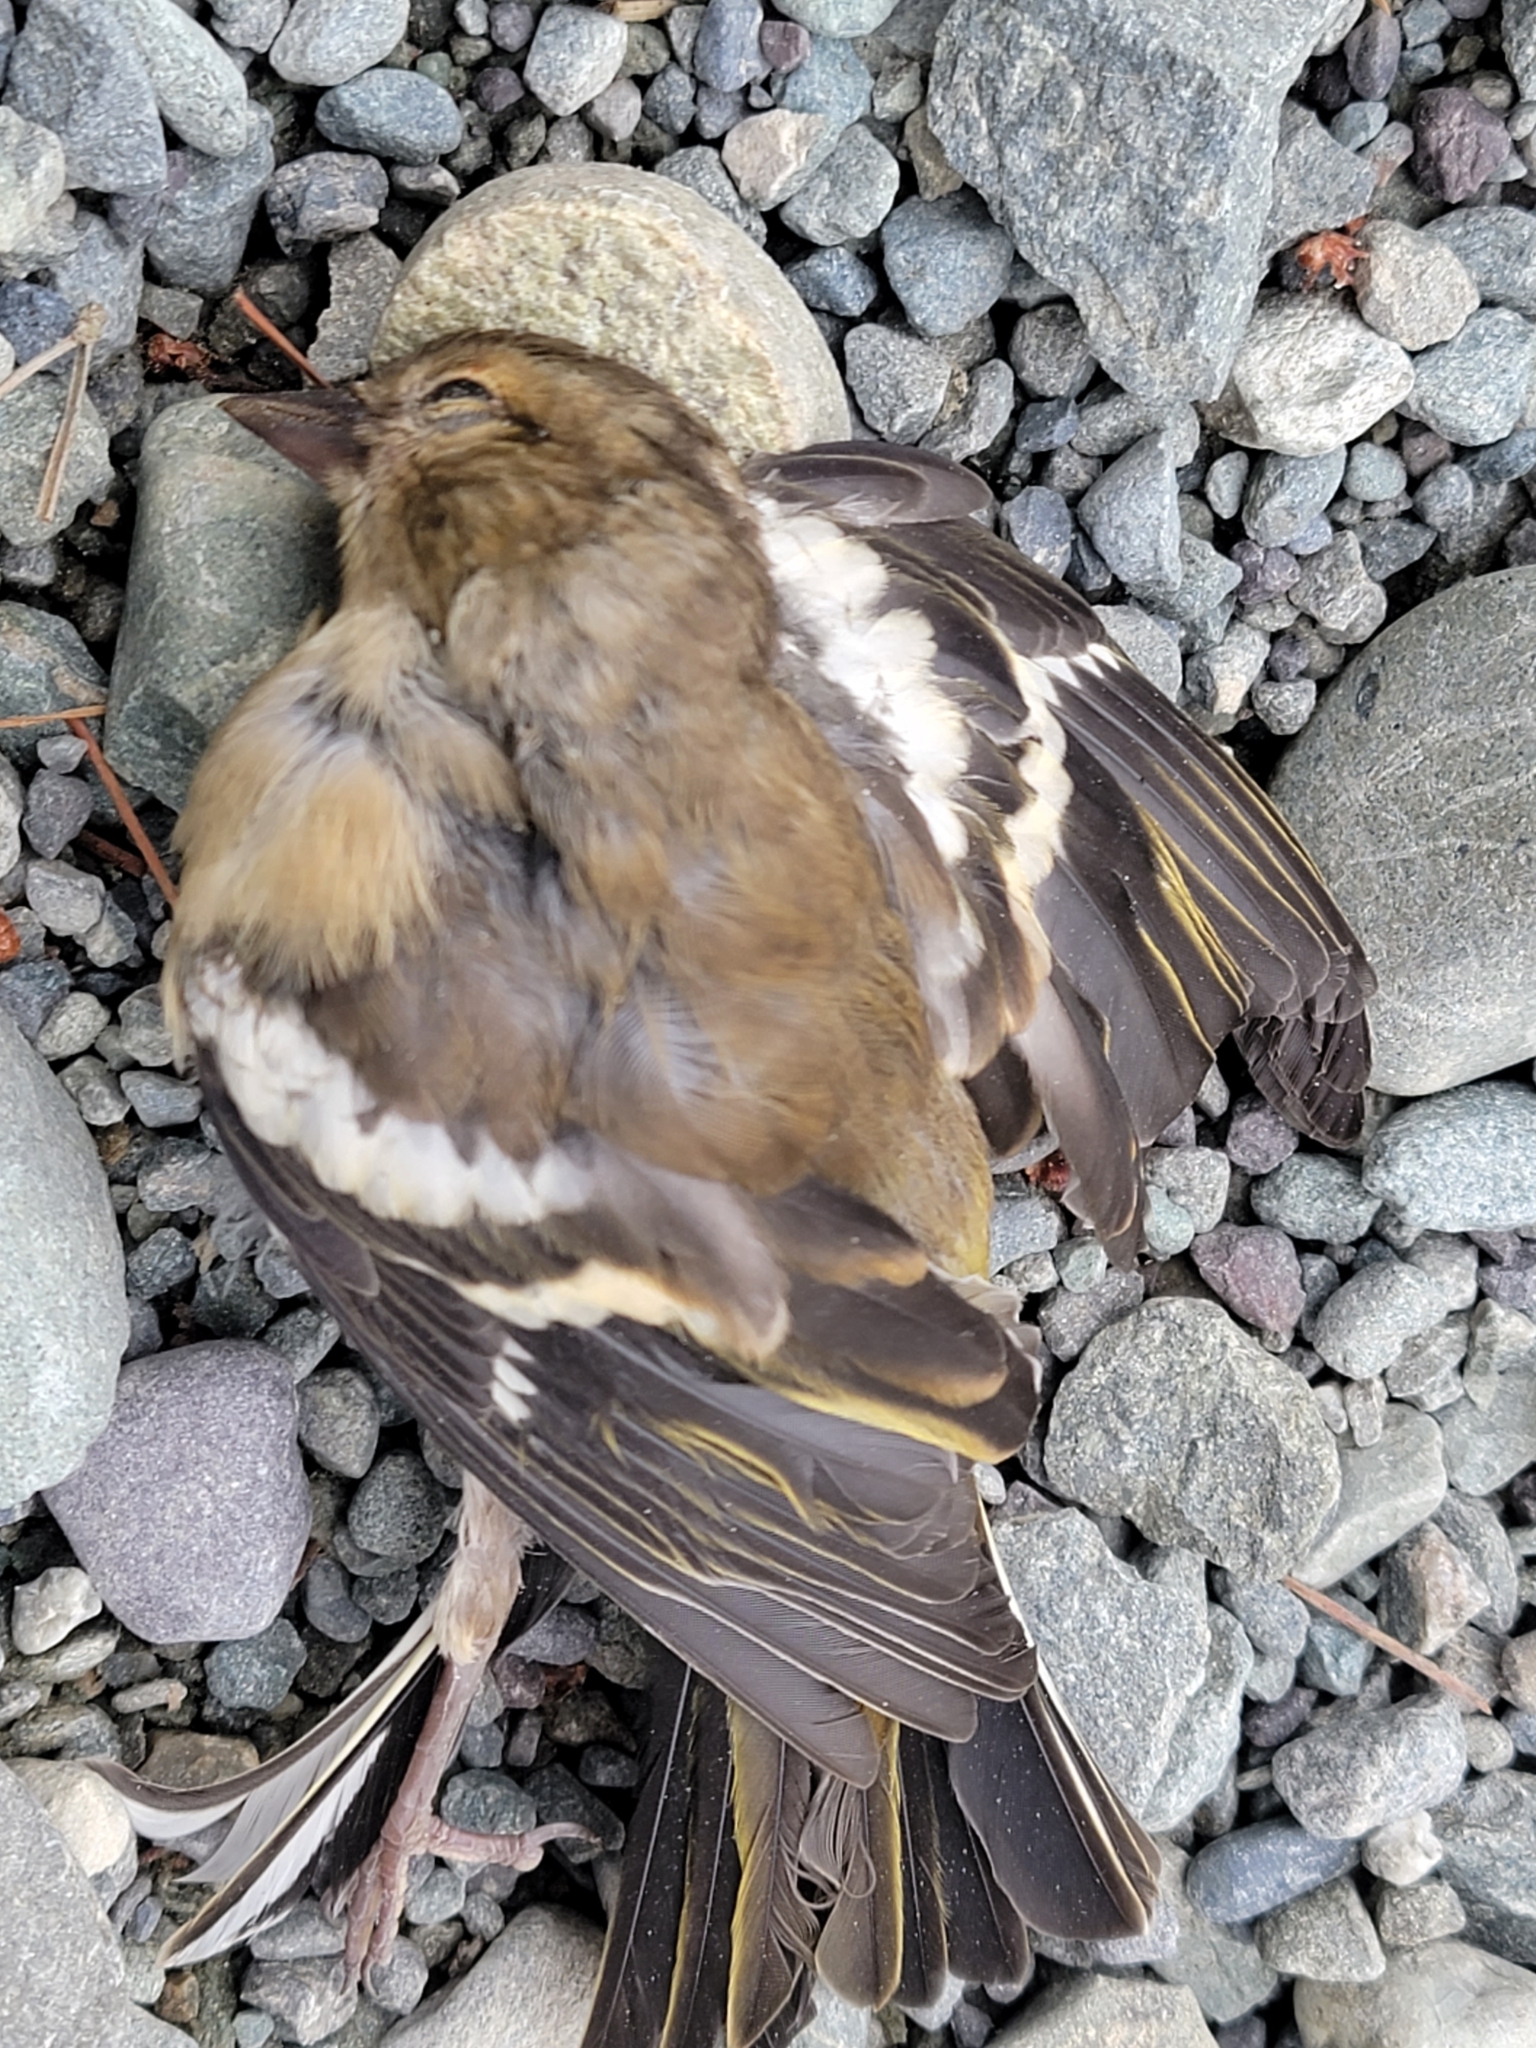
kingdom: Animalia
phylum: Chordata
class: Aves
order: Passeriformes
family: Fringillidae
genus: Fringilla
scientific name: Fringilla coelebs
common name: Common chaffinch
